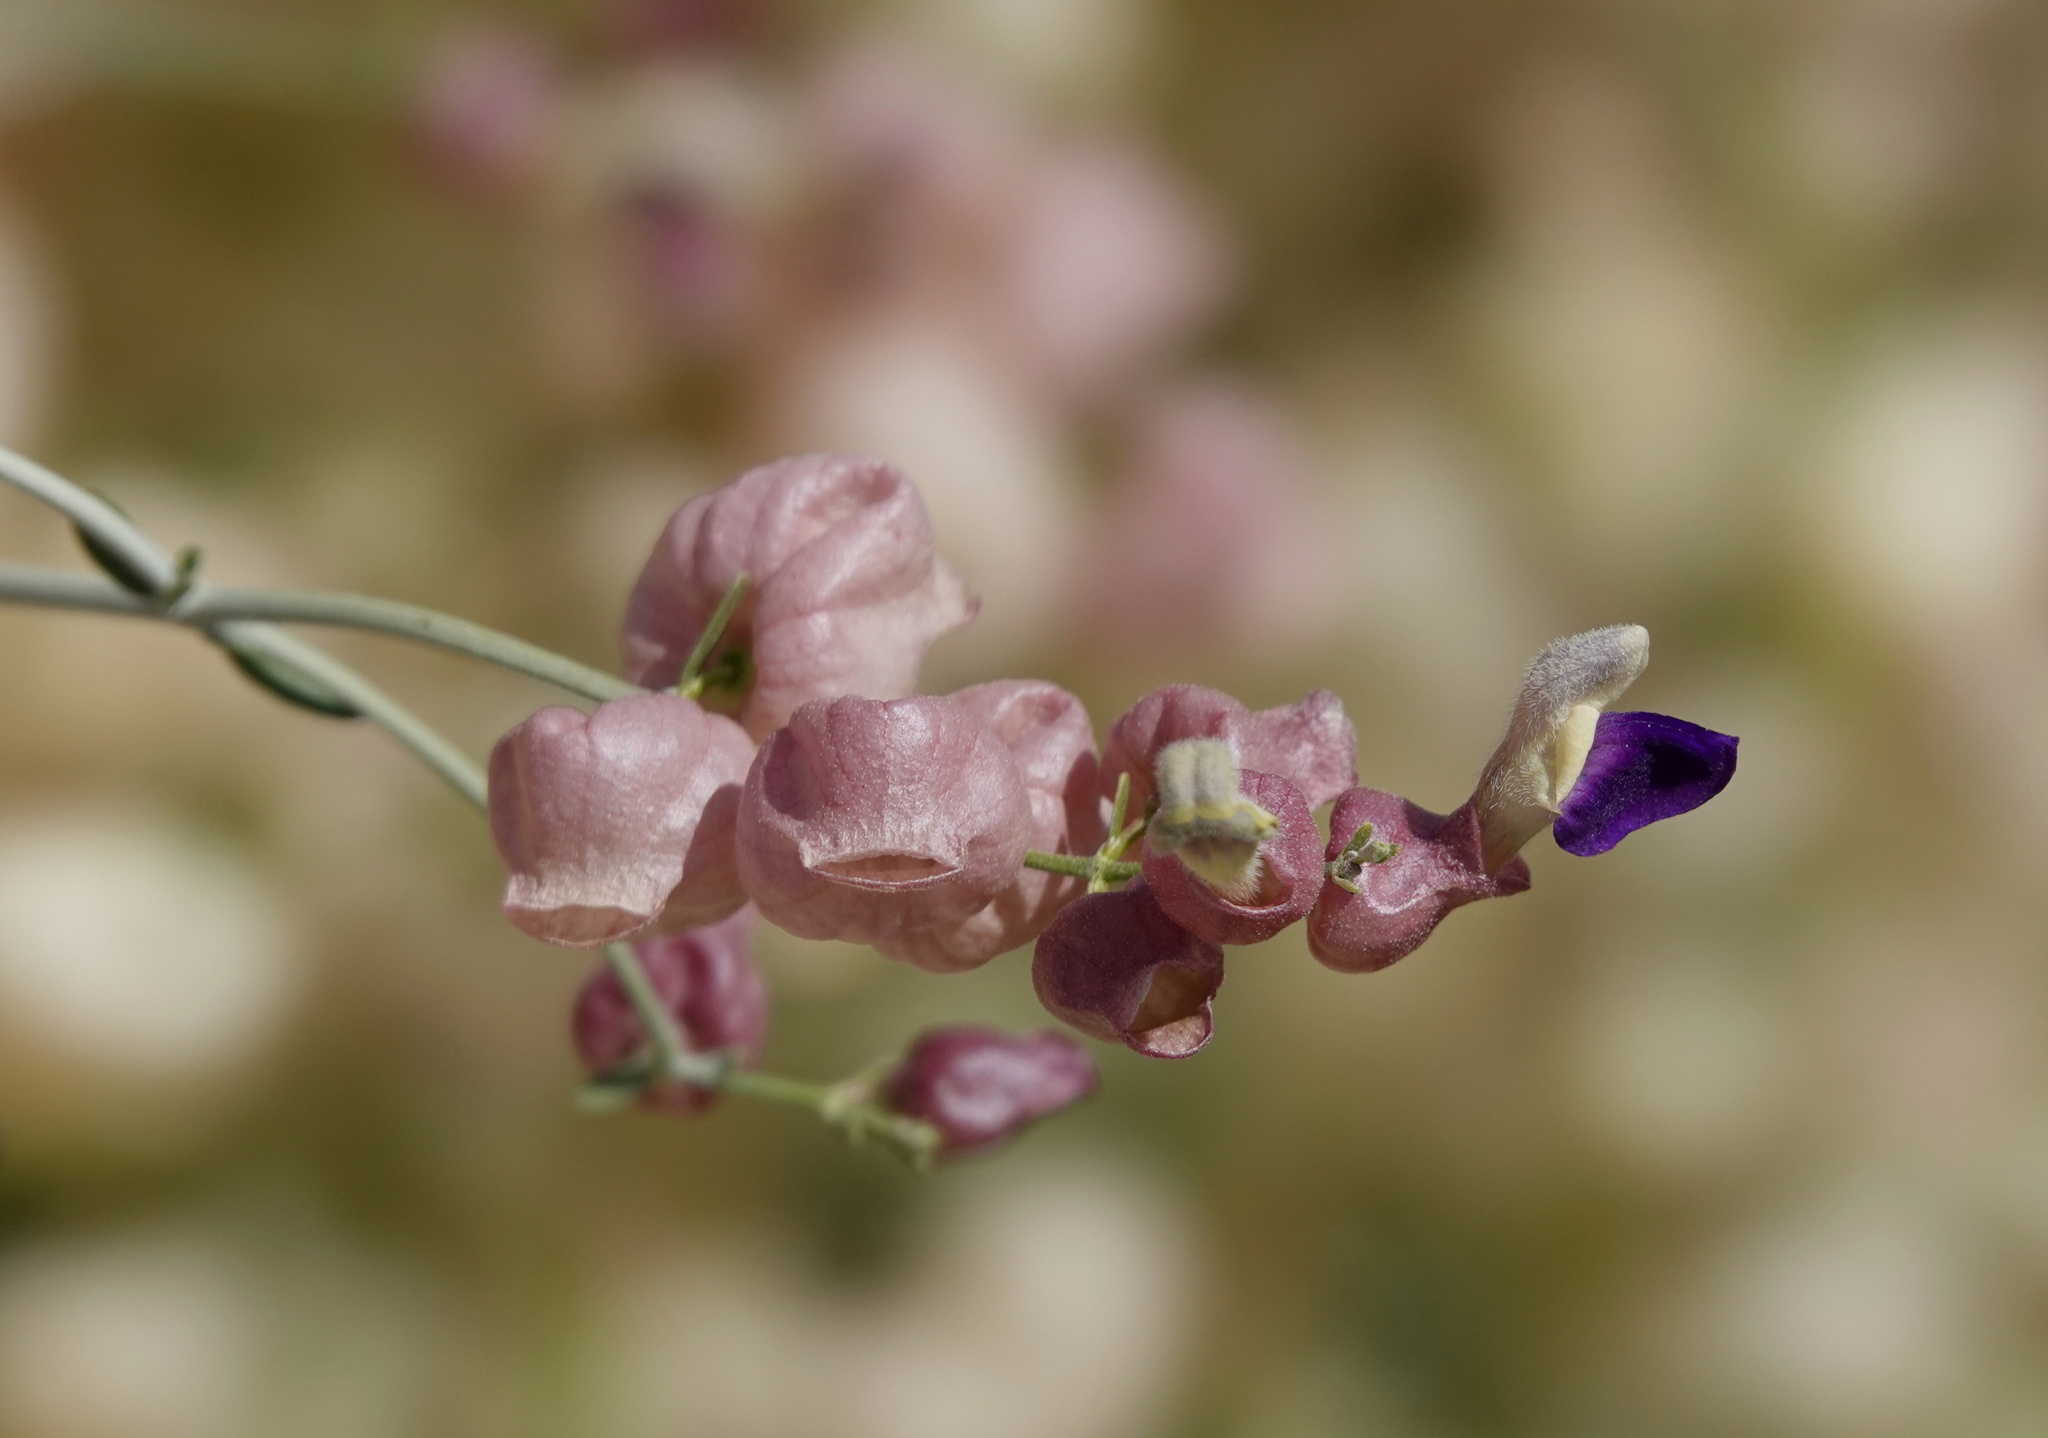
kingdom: Plantae
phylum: Tracheophyta
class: Magnoliopsida
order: Lamiales
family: Lamiaceae
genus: Scutellaria
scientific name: Scutellaria mexicana
